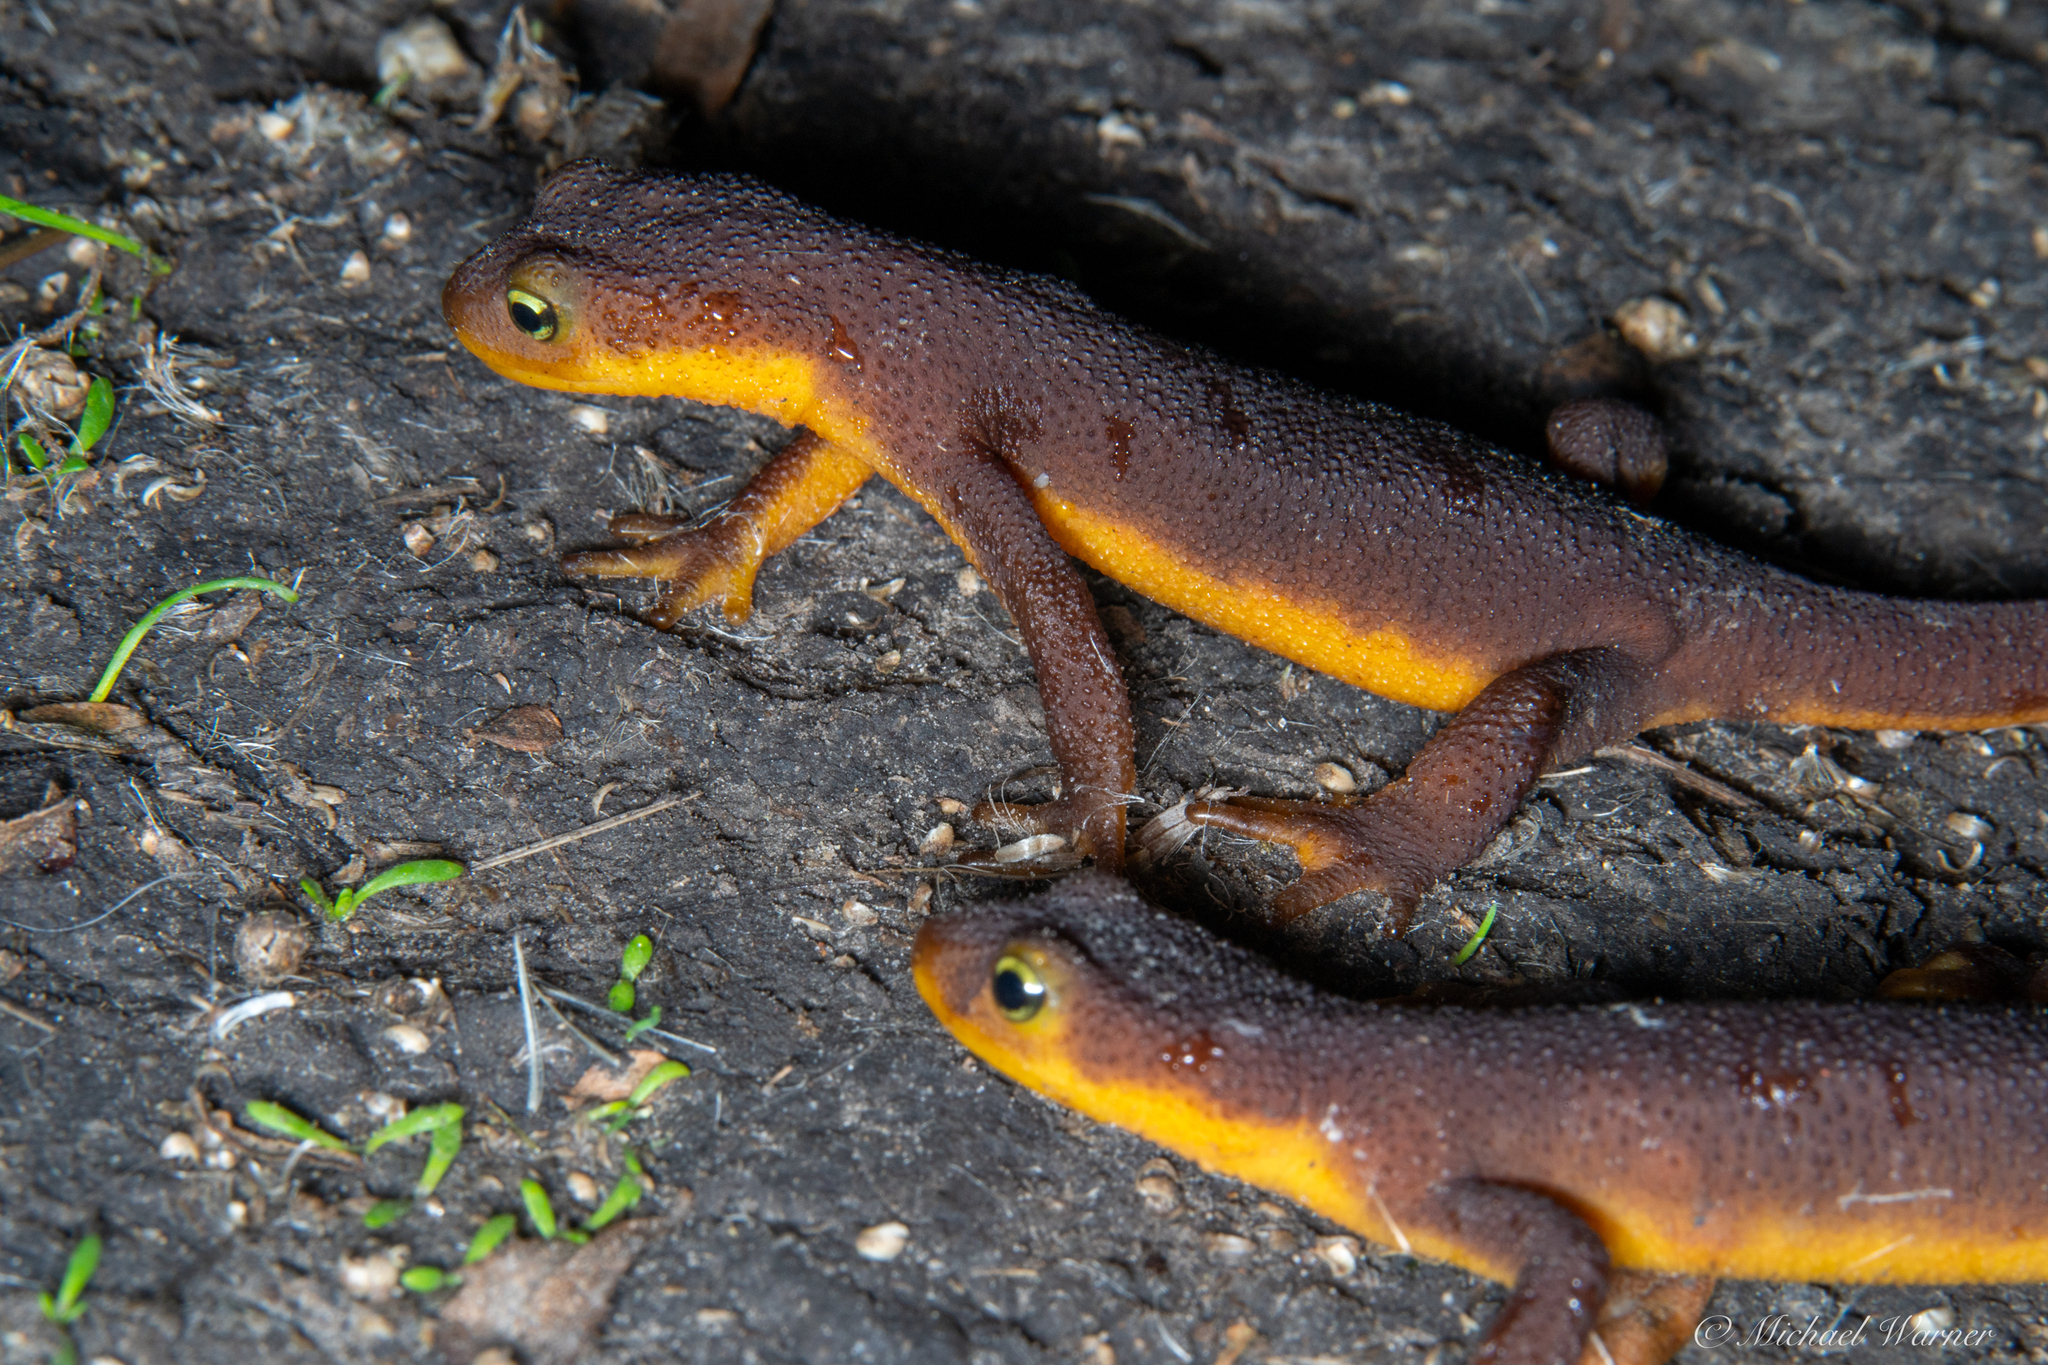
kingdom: Animalia
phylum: Chordata
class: Amphibia
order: Caudata
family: Salamandridae
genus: Taricha
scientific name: Taricha torosa
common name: California newt
